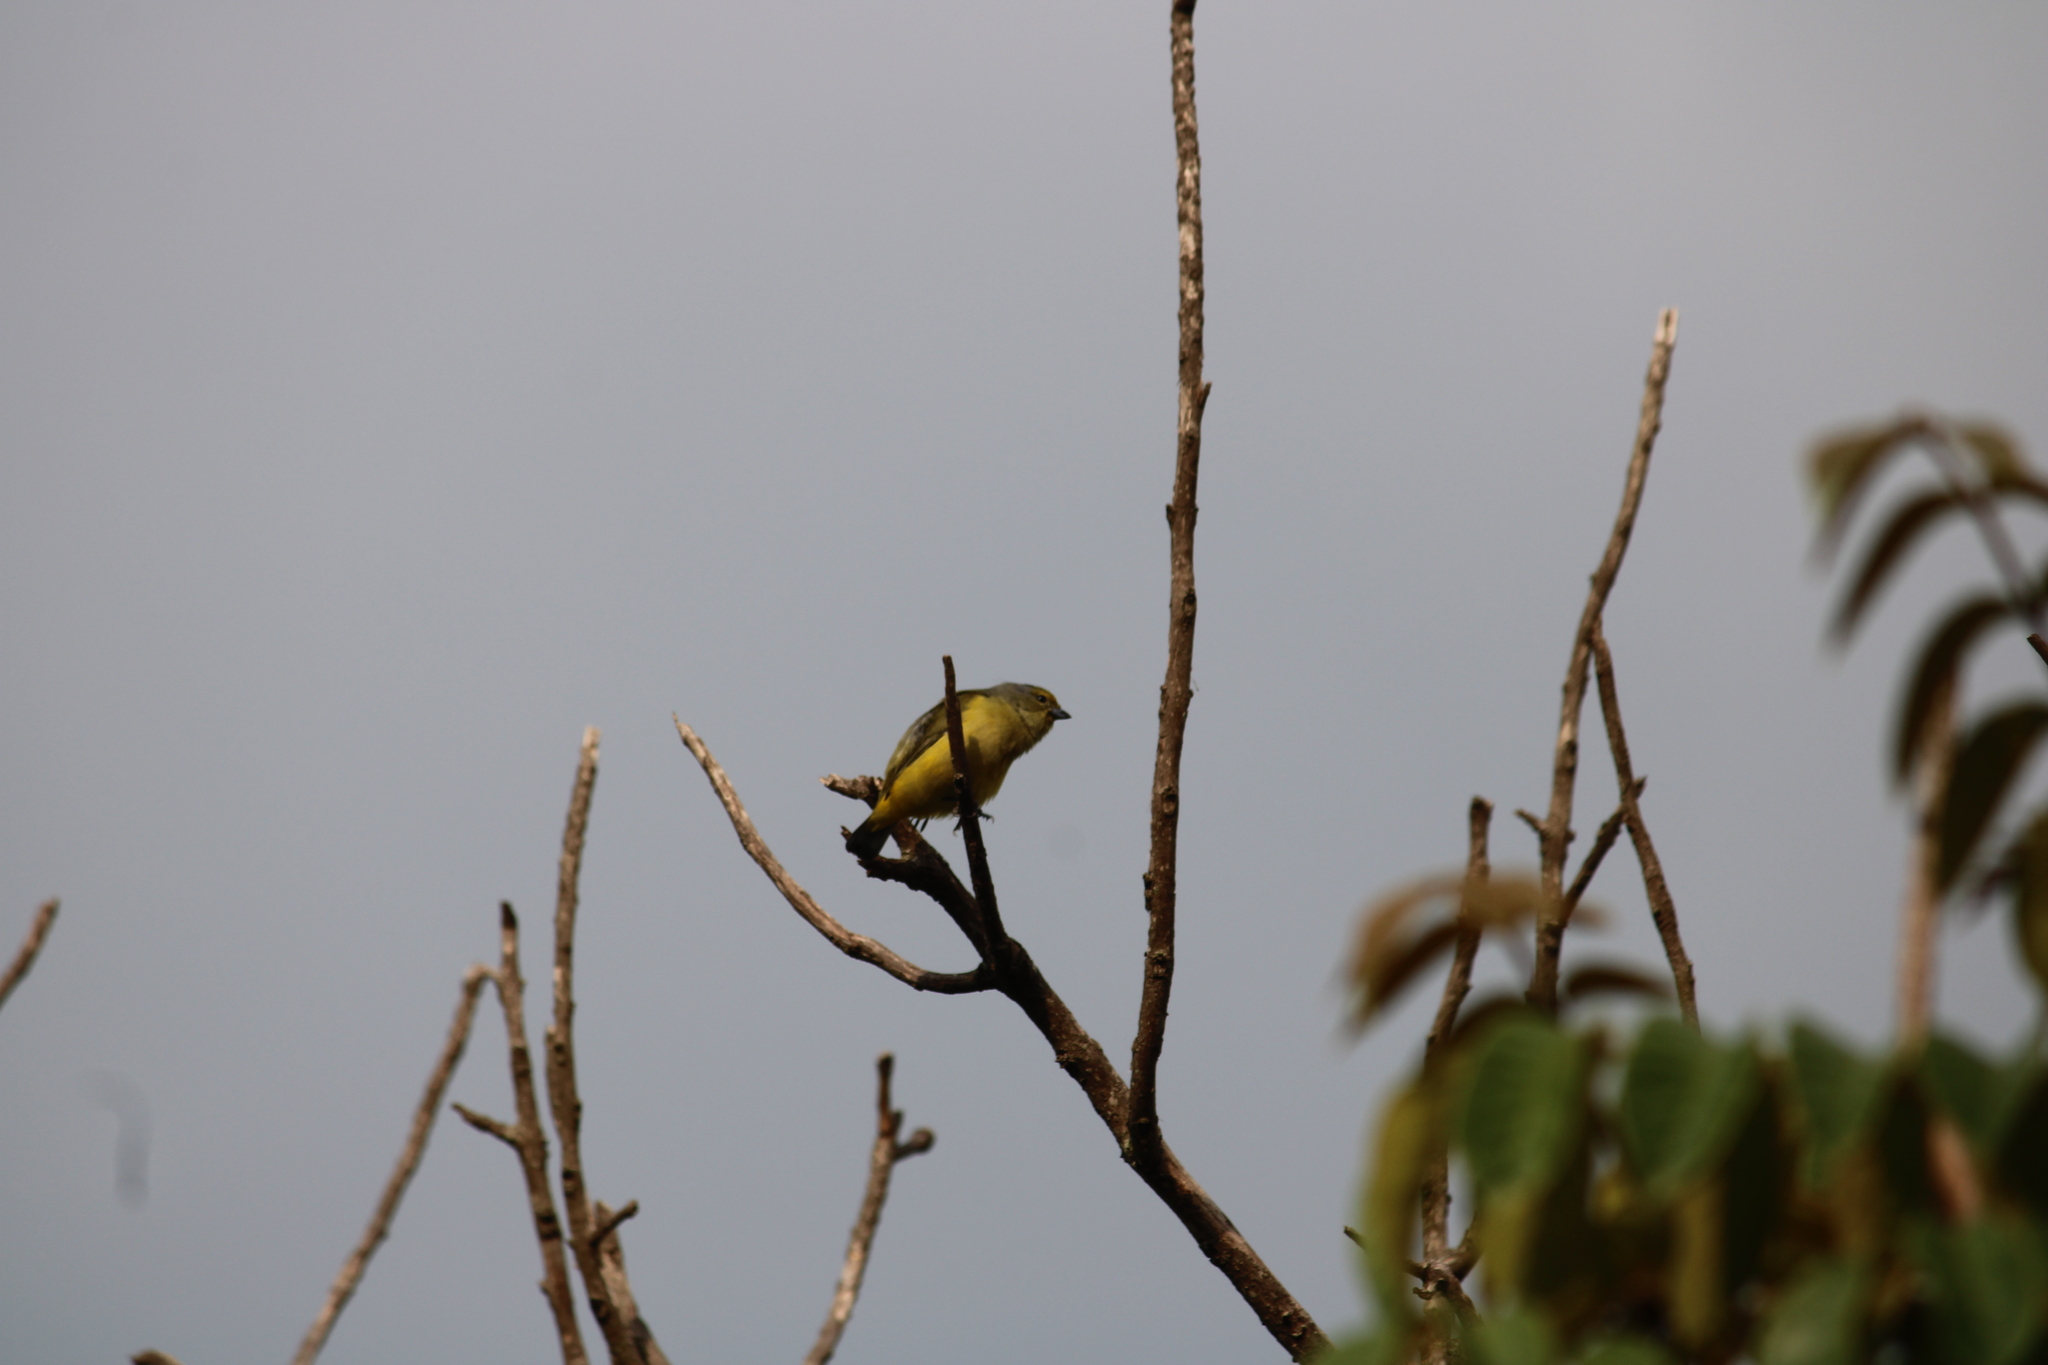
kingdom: Animalia
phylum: Chordata
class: Aves
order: Passeriformes
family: Fringillidae
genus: Euphonia
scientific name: Euphonia affinis
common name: Scrub euphonia
